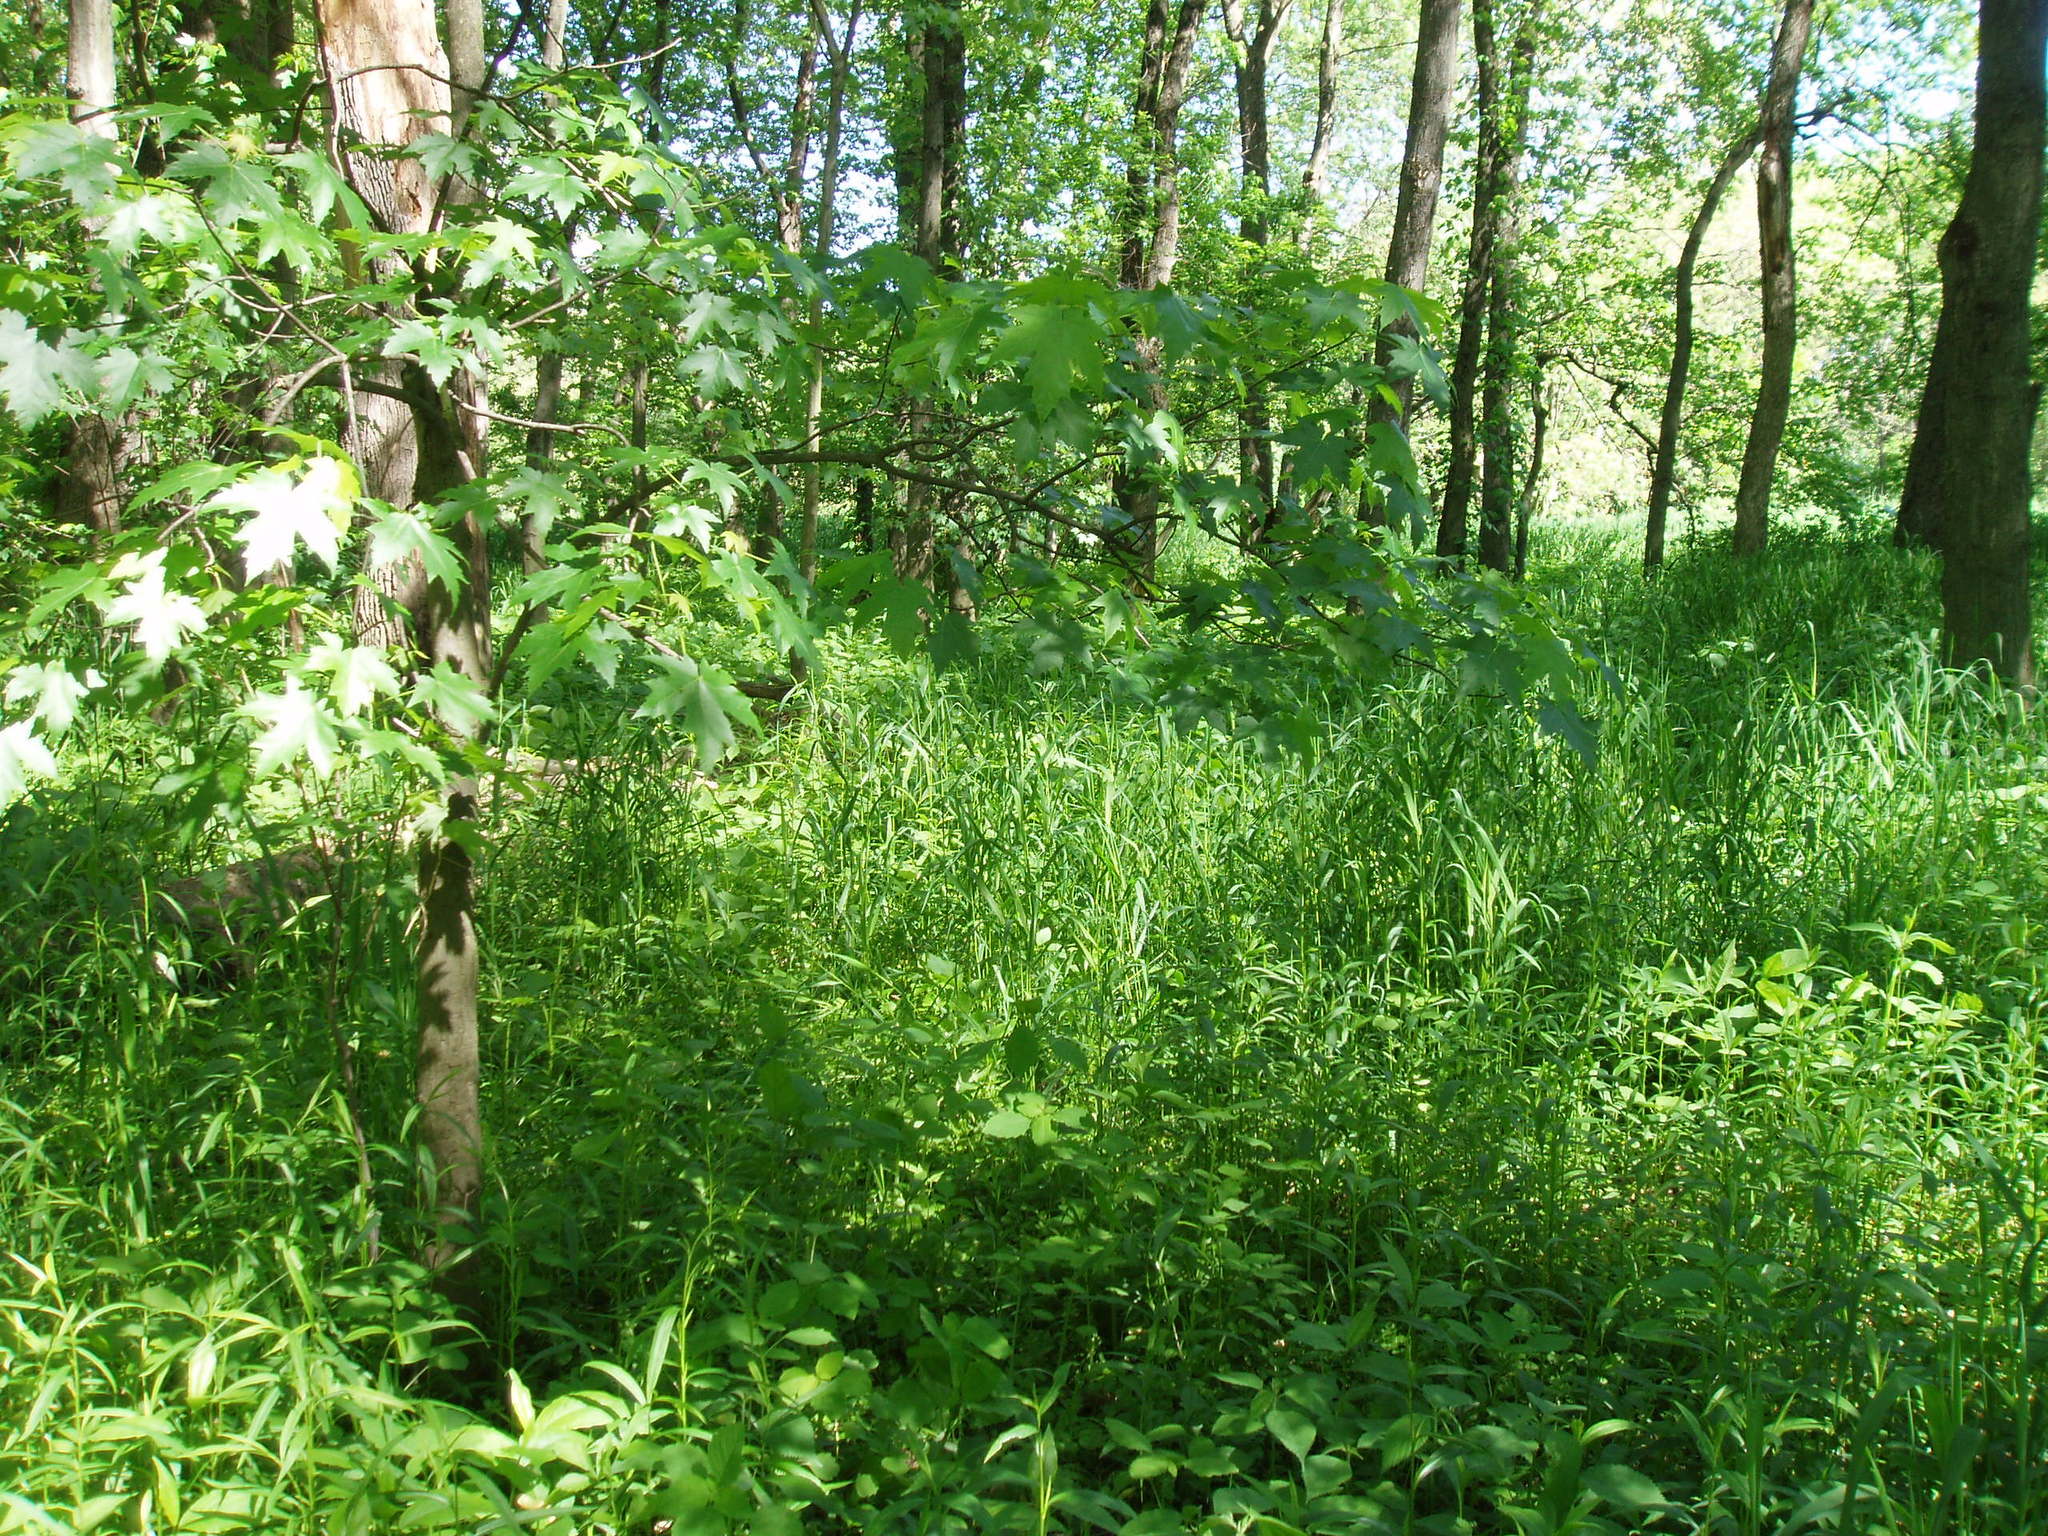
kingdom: Plantae
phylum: Tracheophyta
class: Magnoliopsida
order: Sapindales
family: Sapindaceae
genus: Acer
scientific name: Acer saccharinum
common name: Silver maple
